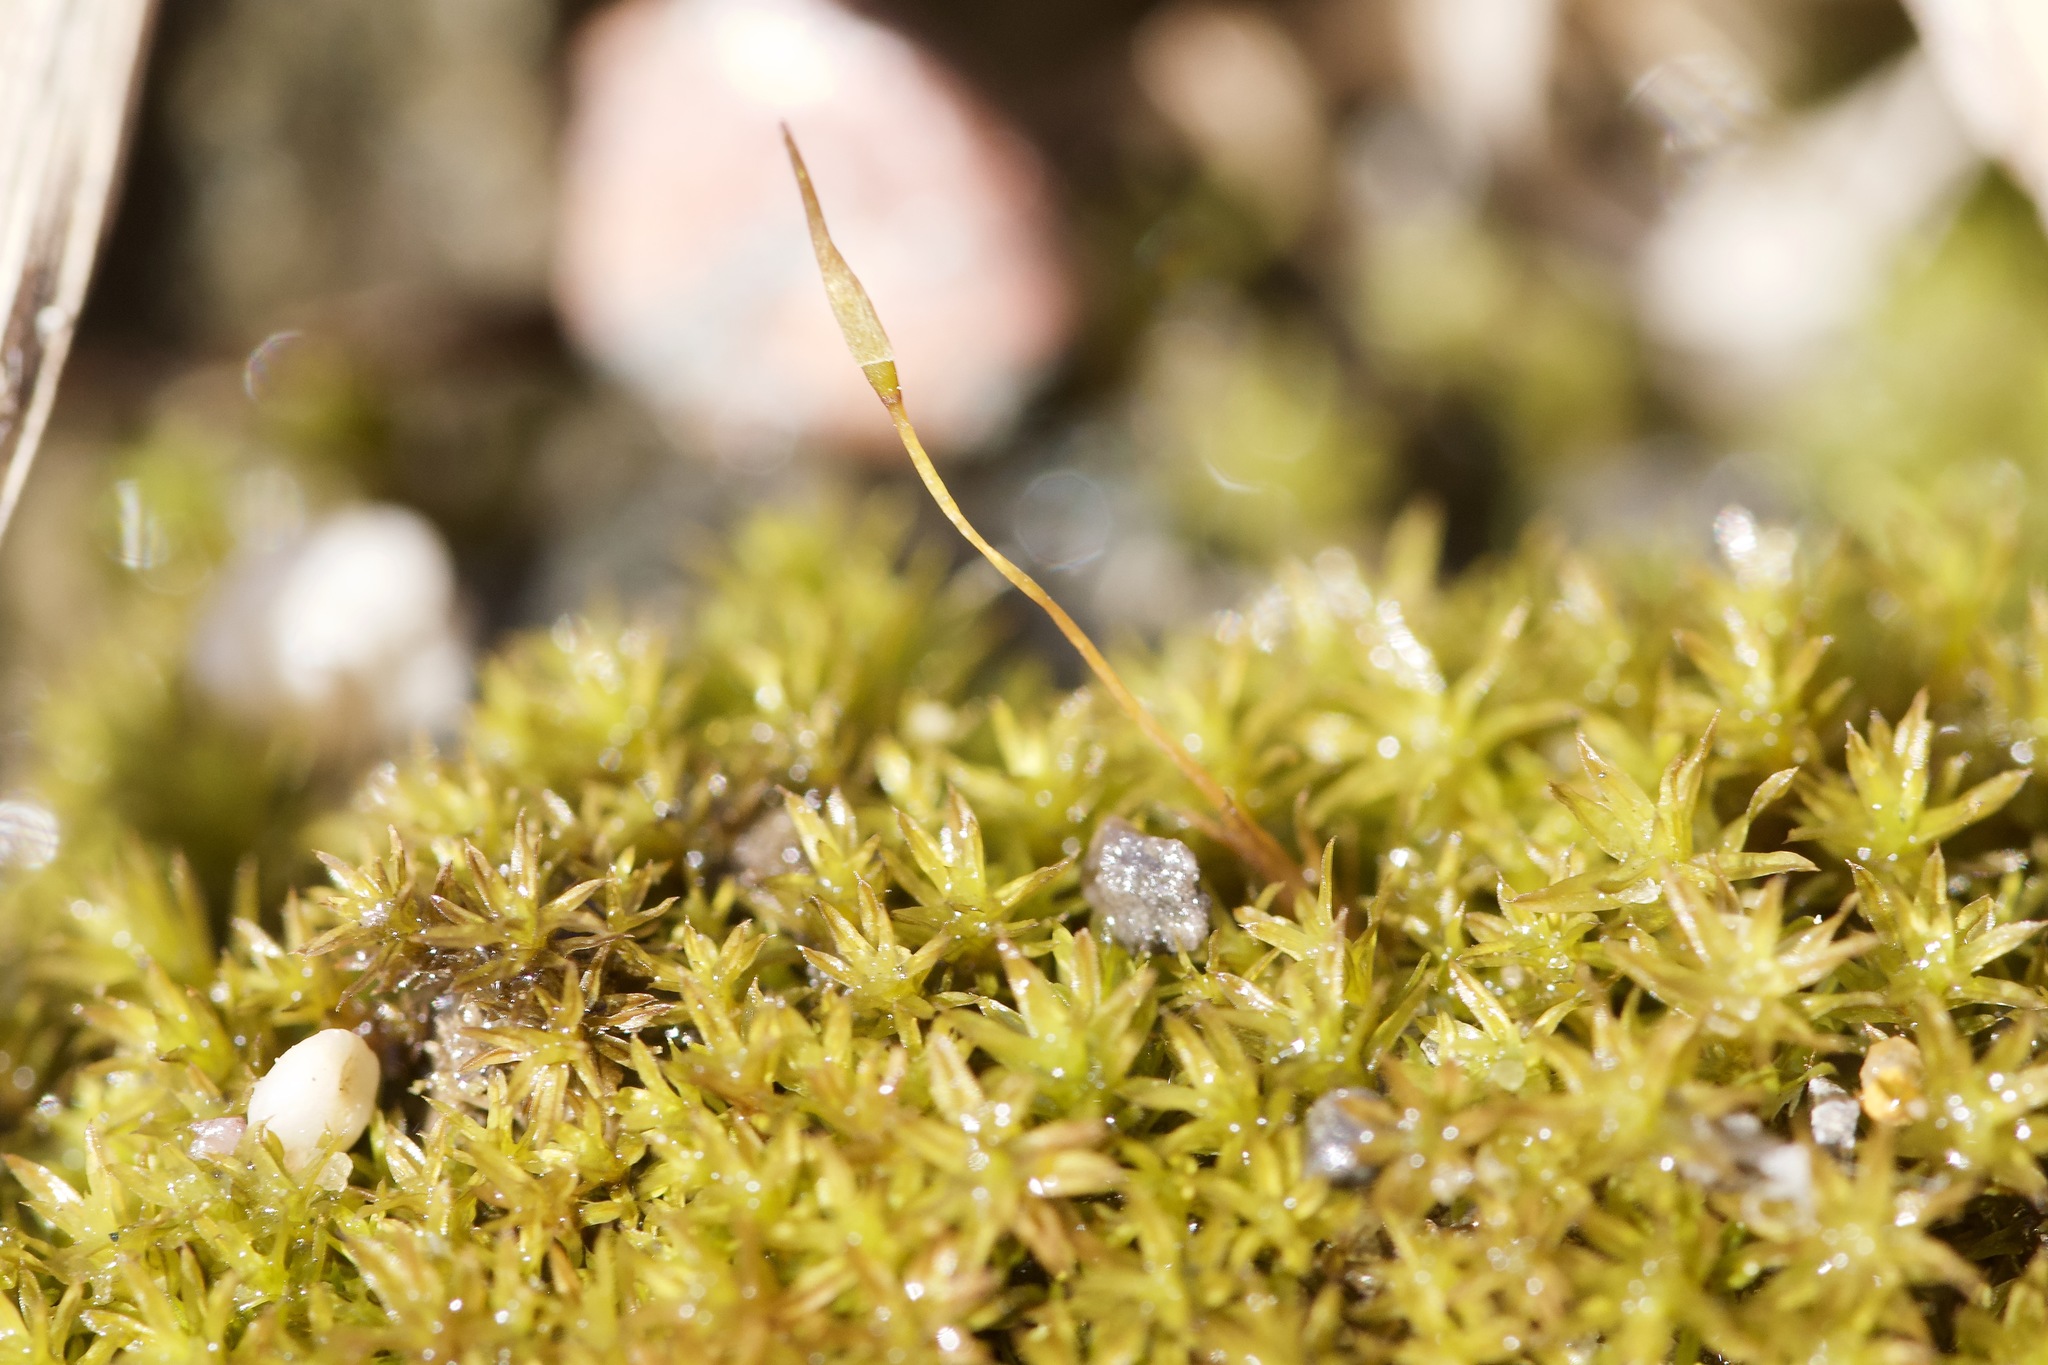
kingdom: Plantae
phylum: Bryophyta
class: Bryopsida
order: Pottiales
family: Pottiaceae
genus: Barbula
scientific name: Barbula unguiculata
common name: Prickly beard moss
